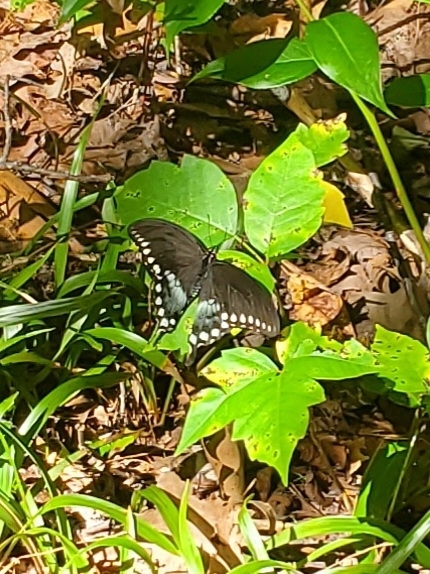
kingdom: Animalia
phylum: Arthropoda
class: Insecta
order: Lepidoptera
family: Papilionidae
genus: Papilio
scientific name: Papilio troilus
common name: Spicebush swallowtail
